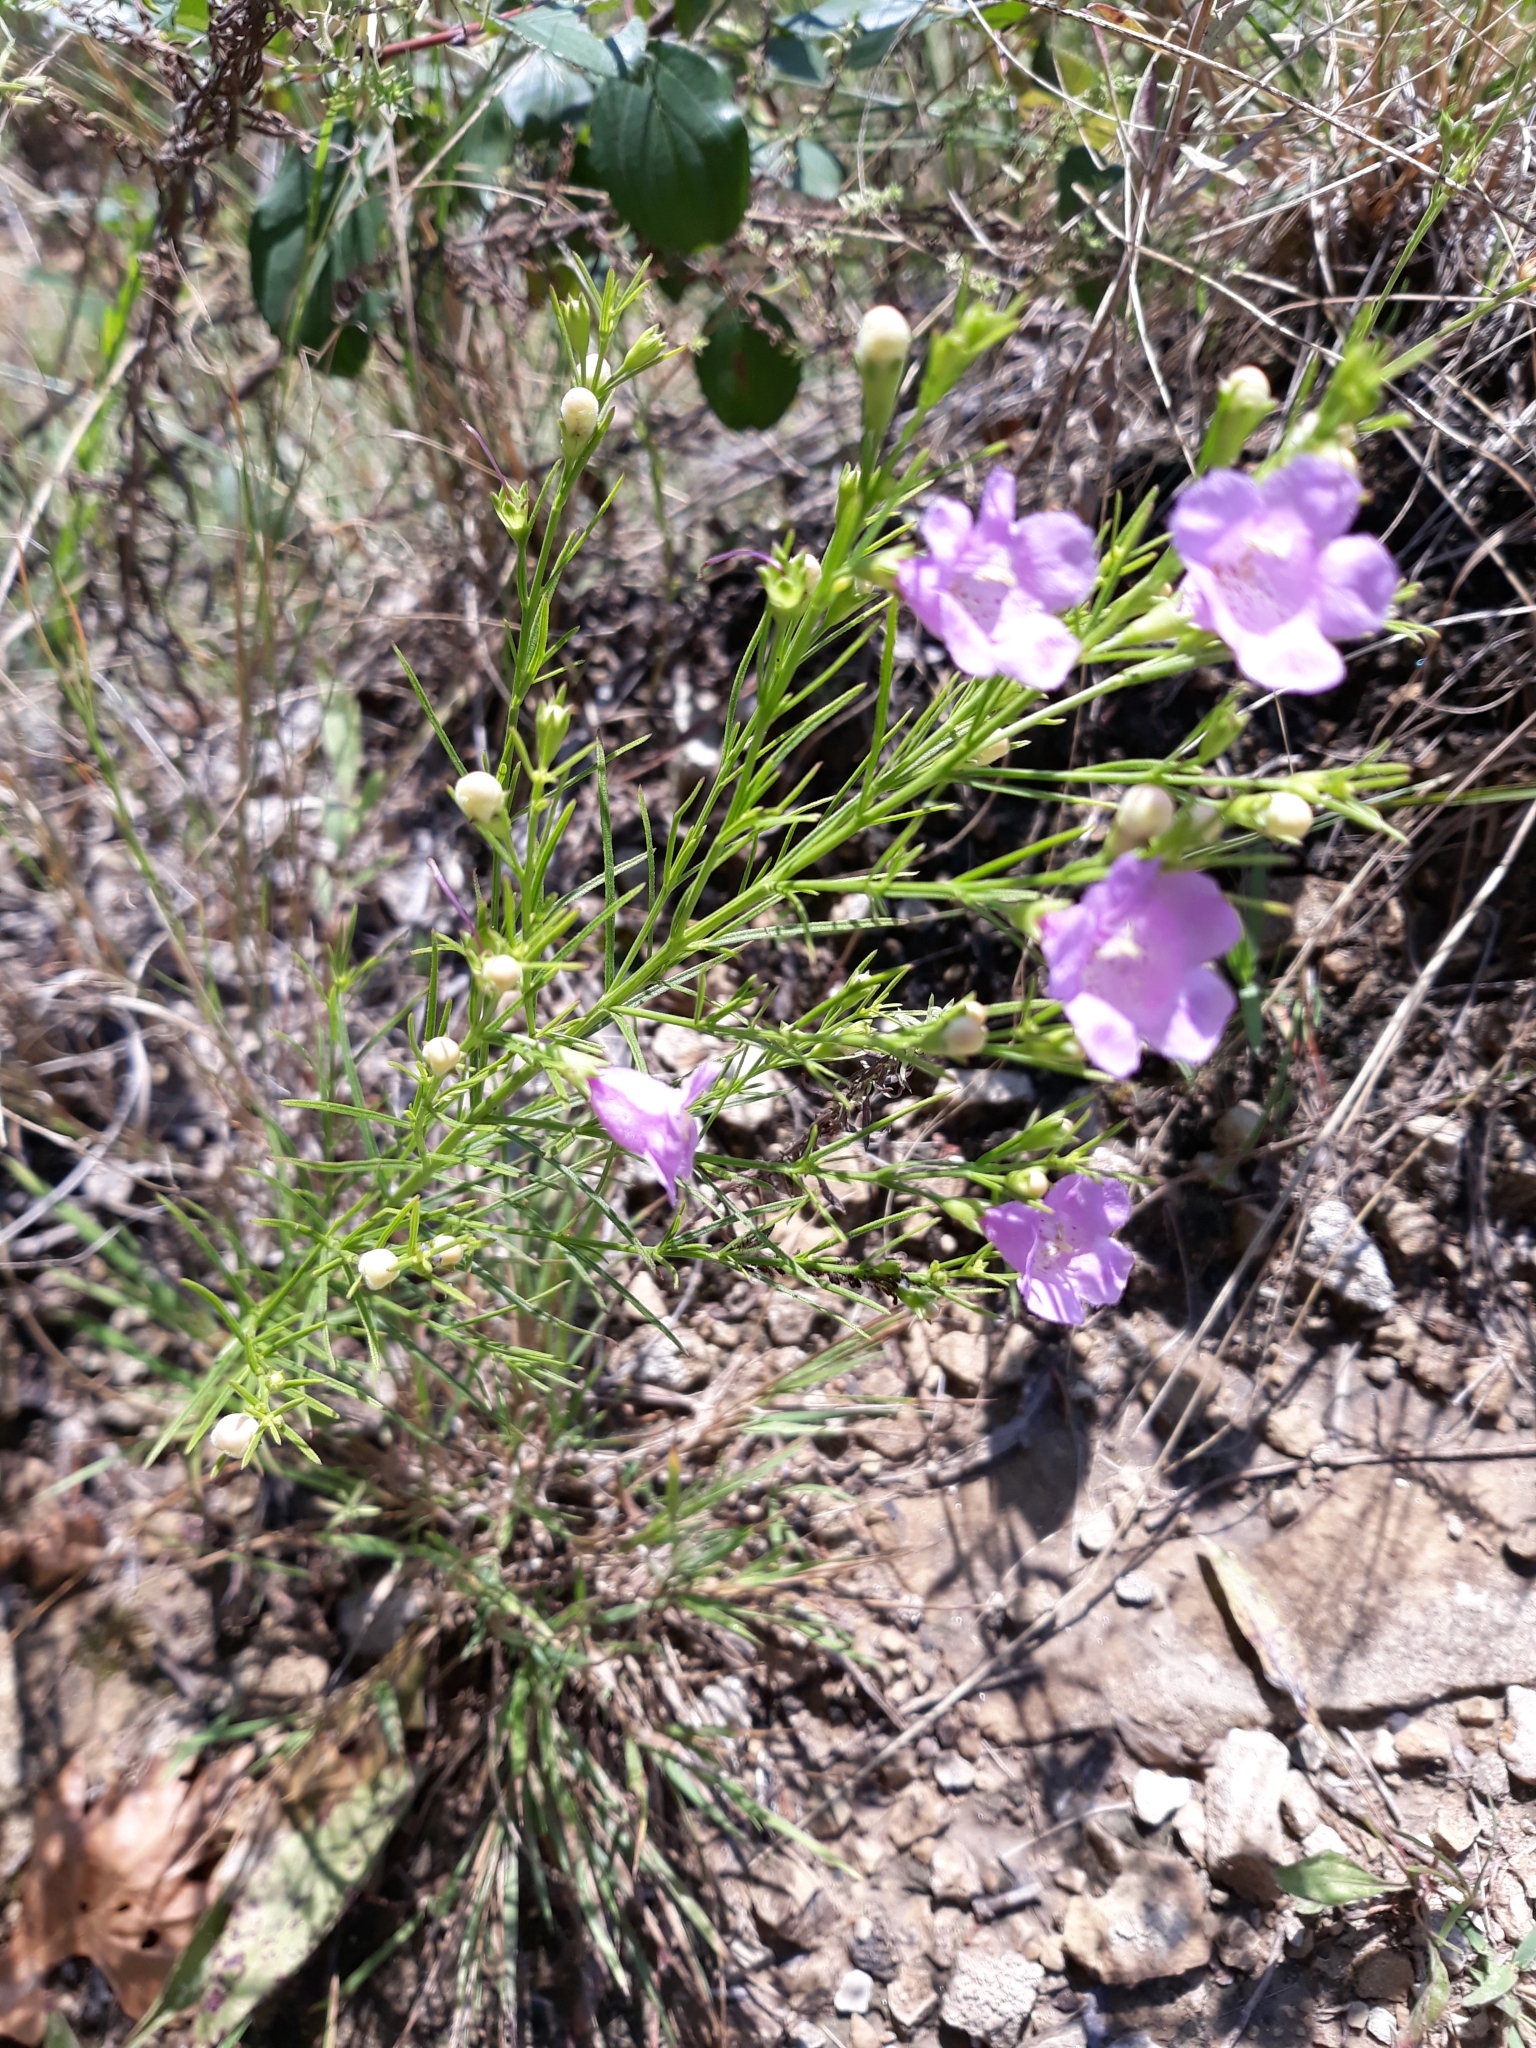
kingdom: Plantae
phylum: Tracheophyta
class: Magnoliopsida
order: Lamiales
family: Orobanchaceae
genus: Agalinis
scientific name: Agalinis aspera
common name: Rough agalinis
